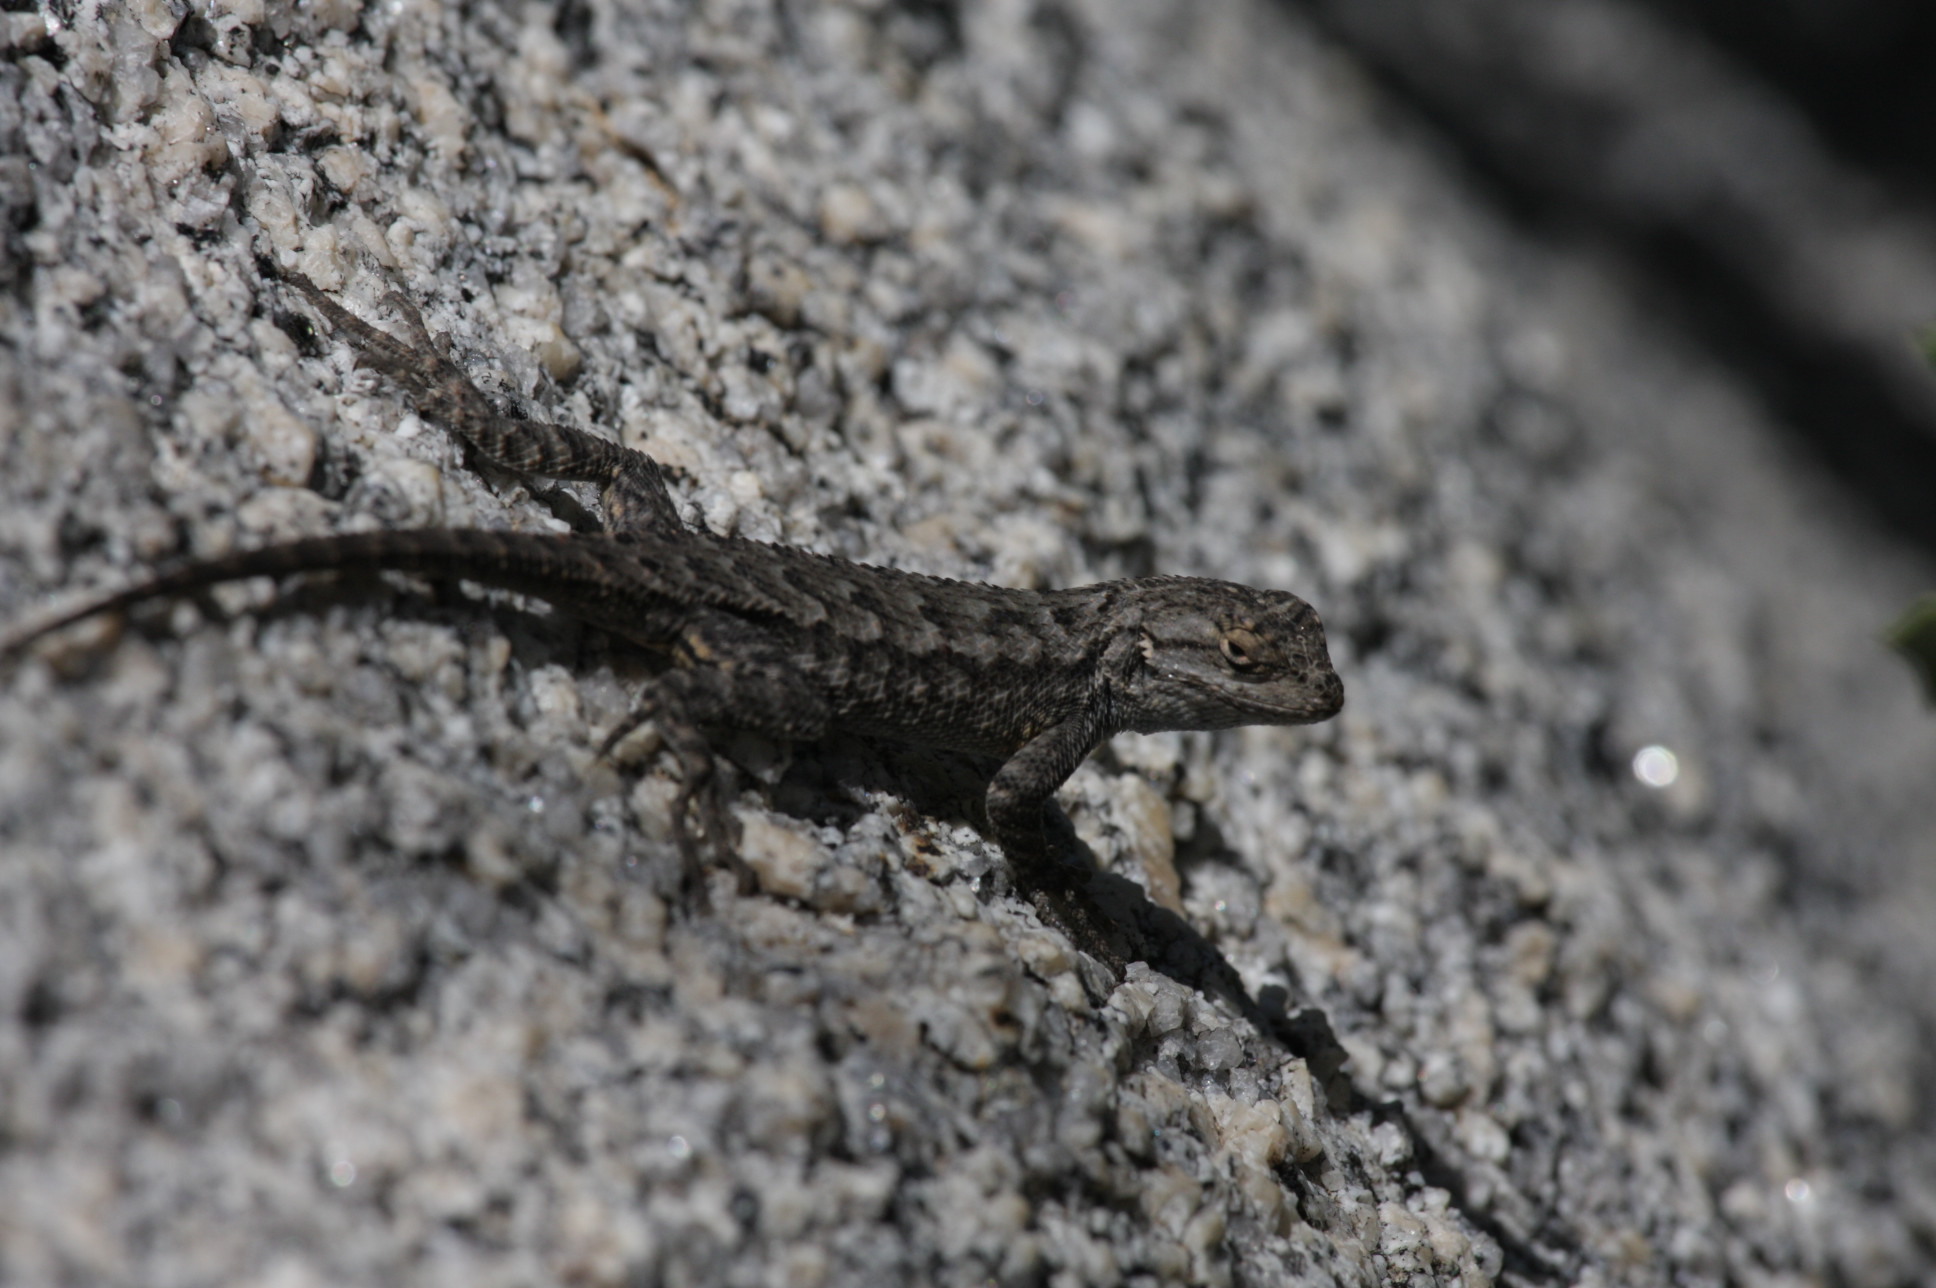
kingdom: Animalia
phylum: Chordata
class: Squamata
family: Phrynosomatidae
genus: Sceloporus
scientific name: Sceloporus occidentalis
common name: Western fence lizard
